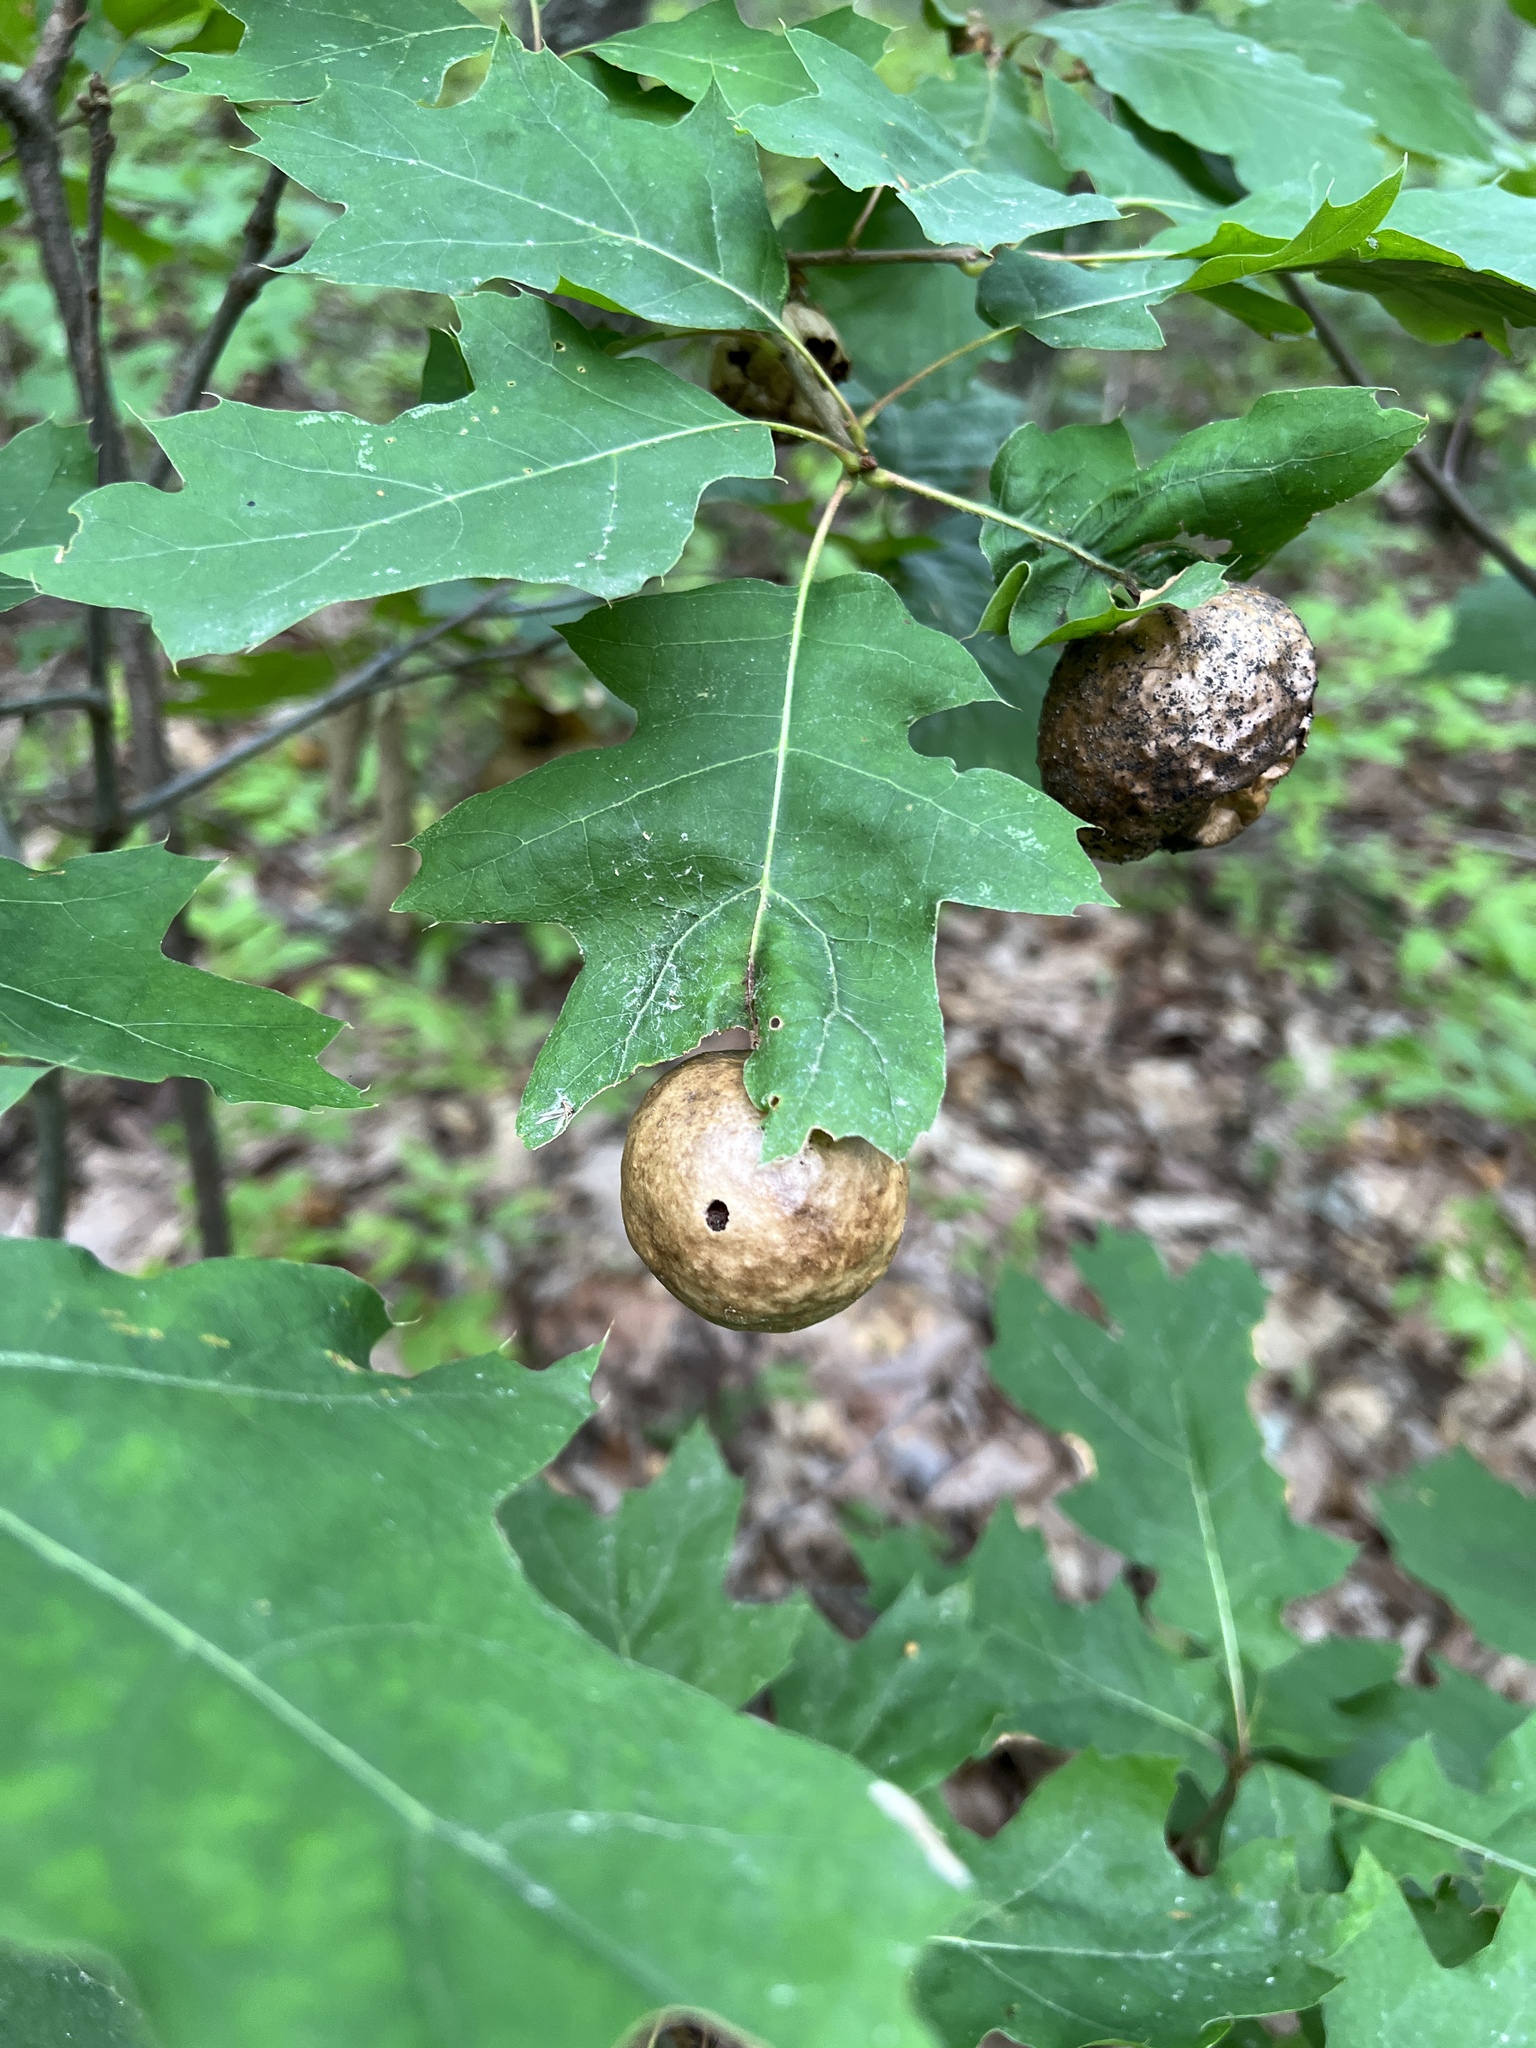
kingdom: Animalia
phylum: Arthropoda
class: Insecta
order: Hymenoptera
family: Cynipidae
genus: Amphibolips
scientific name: Amphibolips
